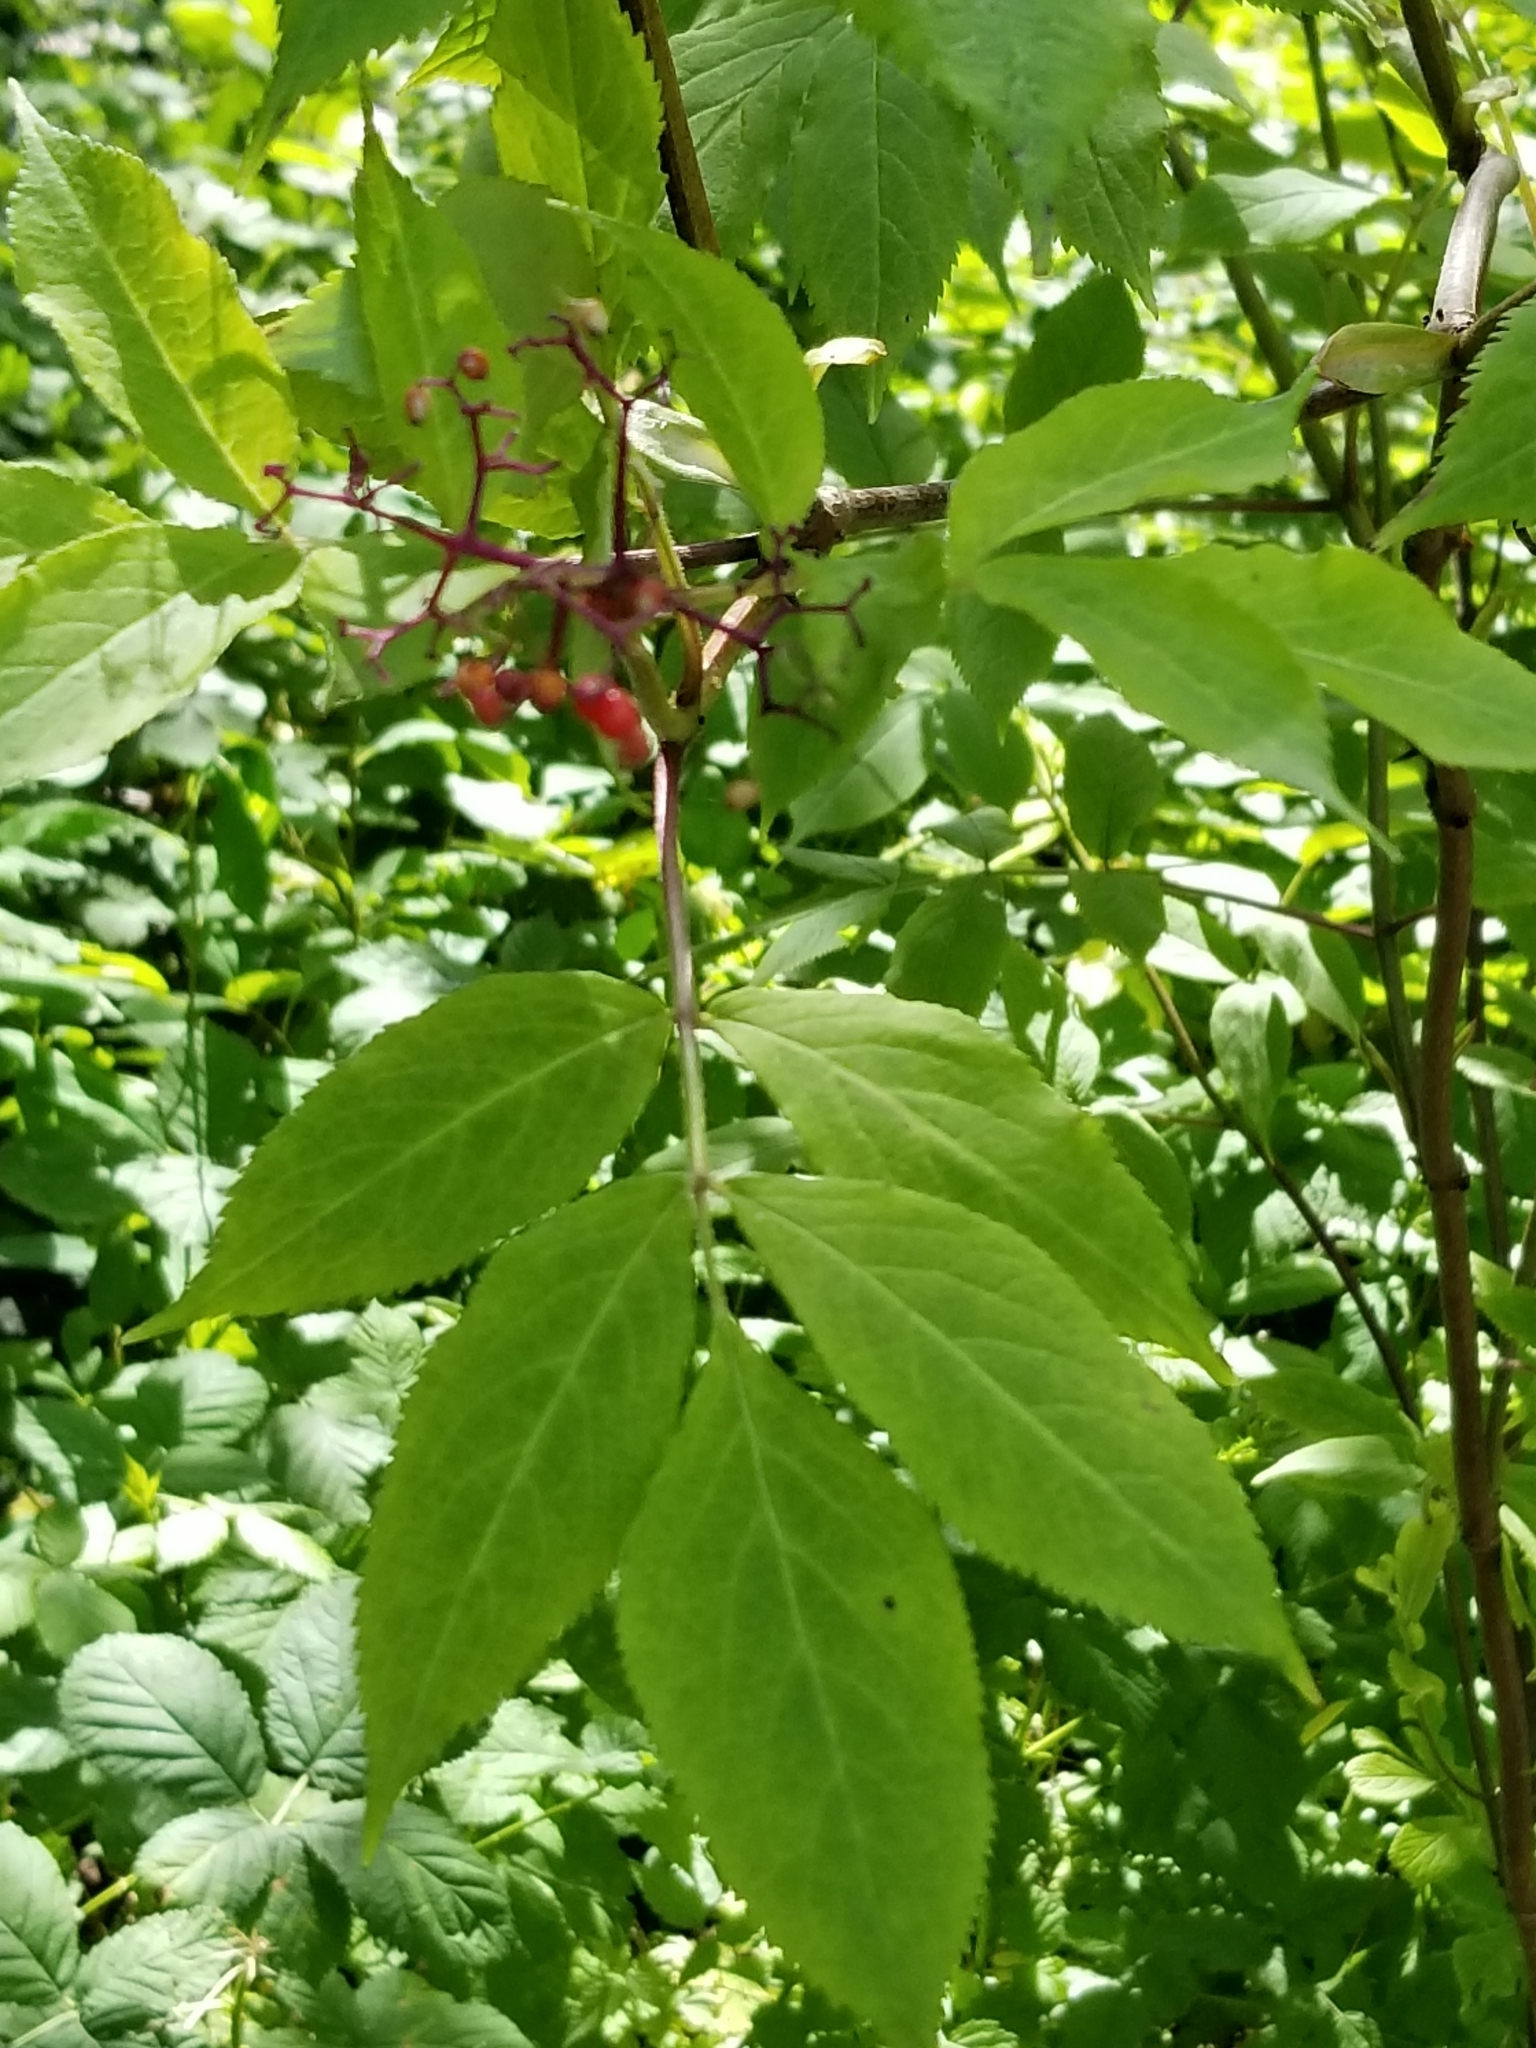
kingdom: Plantae
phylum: Tracheophyta
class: Magnoliopsida
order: Dipsacales
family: Viburnaceae
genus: Sambucus
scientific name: Sambucus racemosa
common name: Red-berried elder
